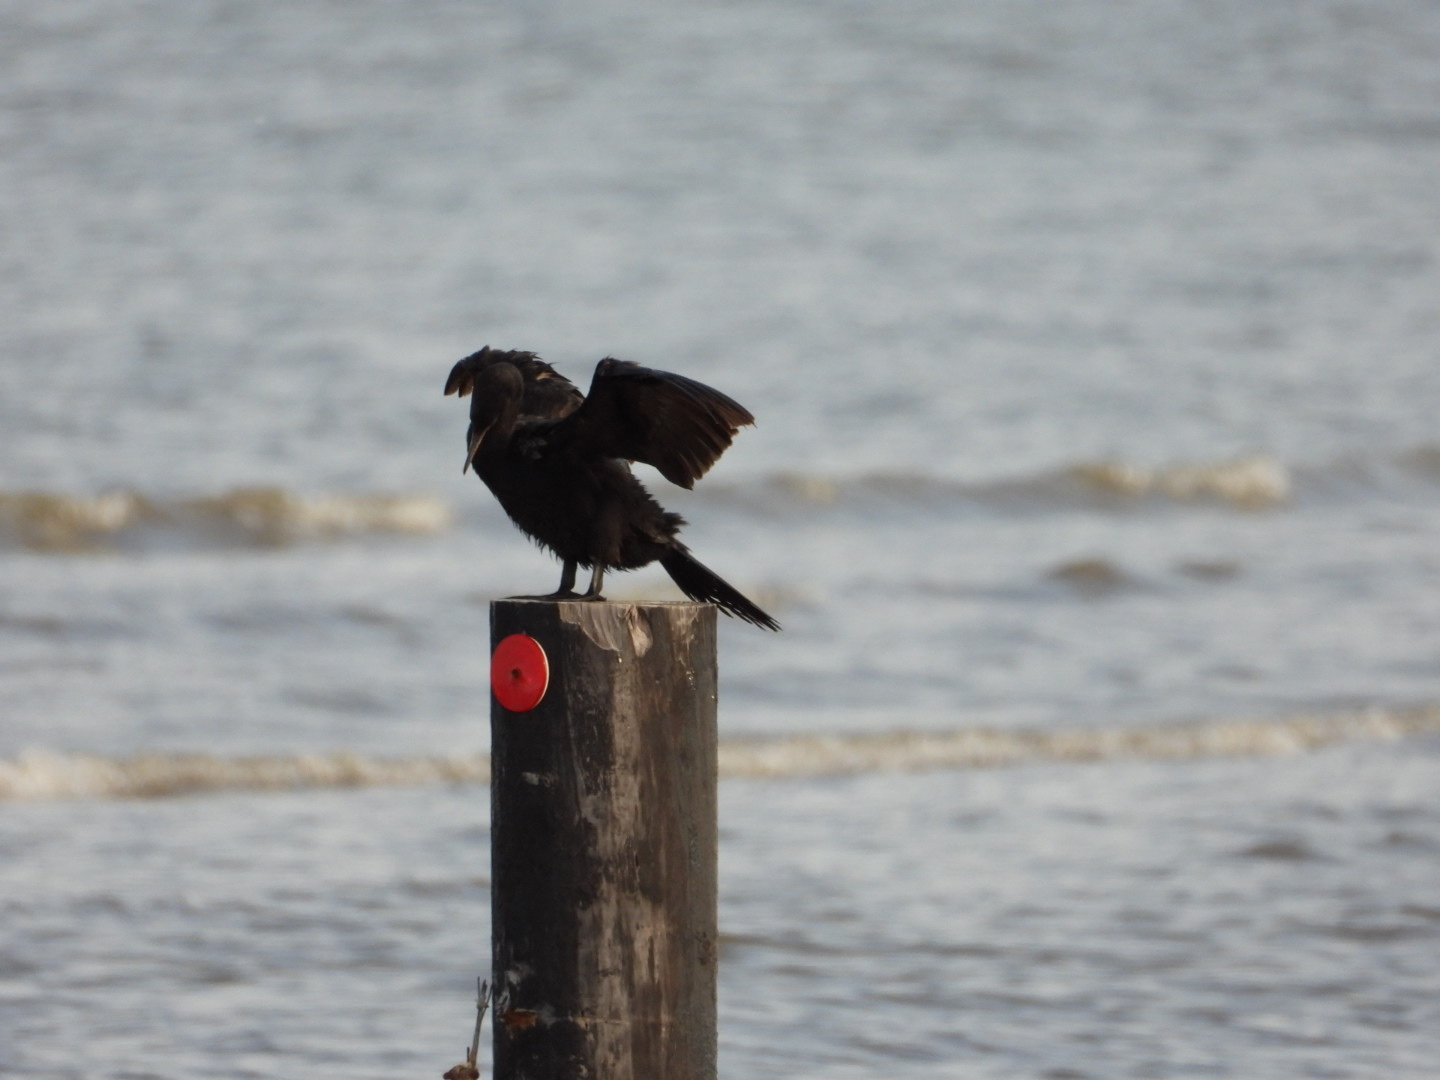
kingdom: Animalia
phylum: Chordata
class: Aves
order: Suliformes
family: Phalacrocoracidae
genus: Phalacrocorax
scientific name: Phalacrocorax auritus
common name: Double-crested cormorant
